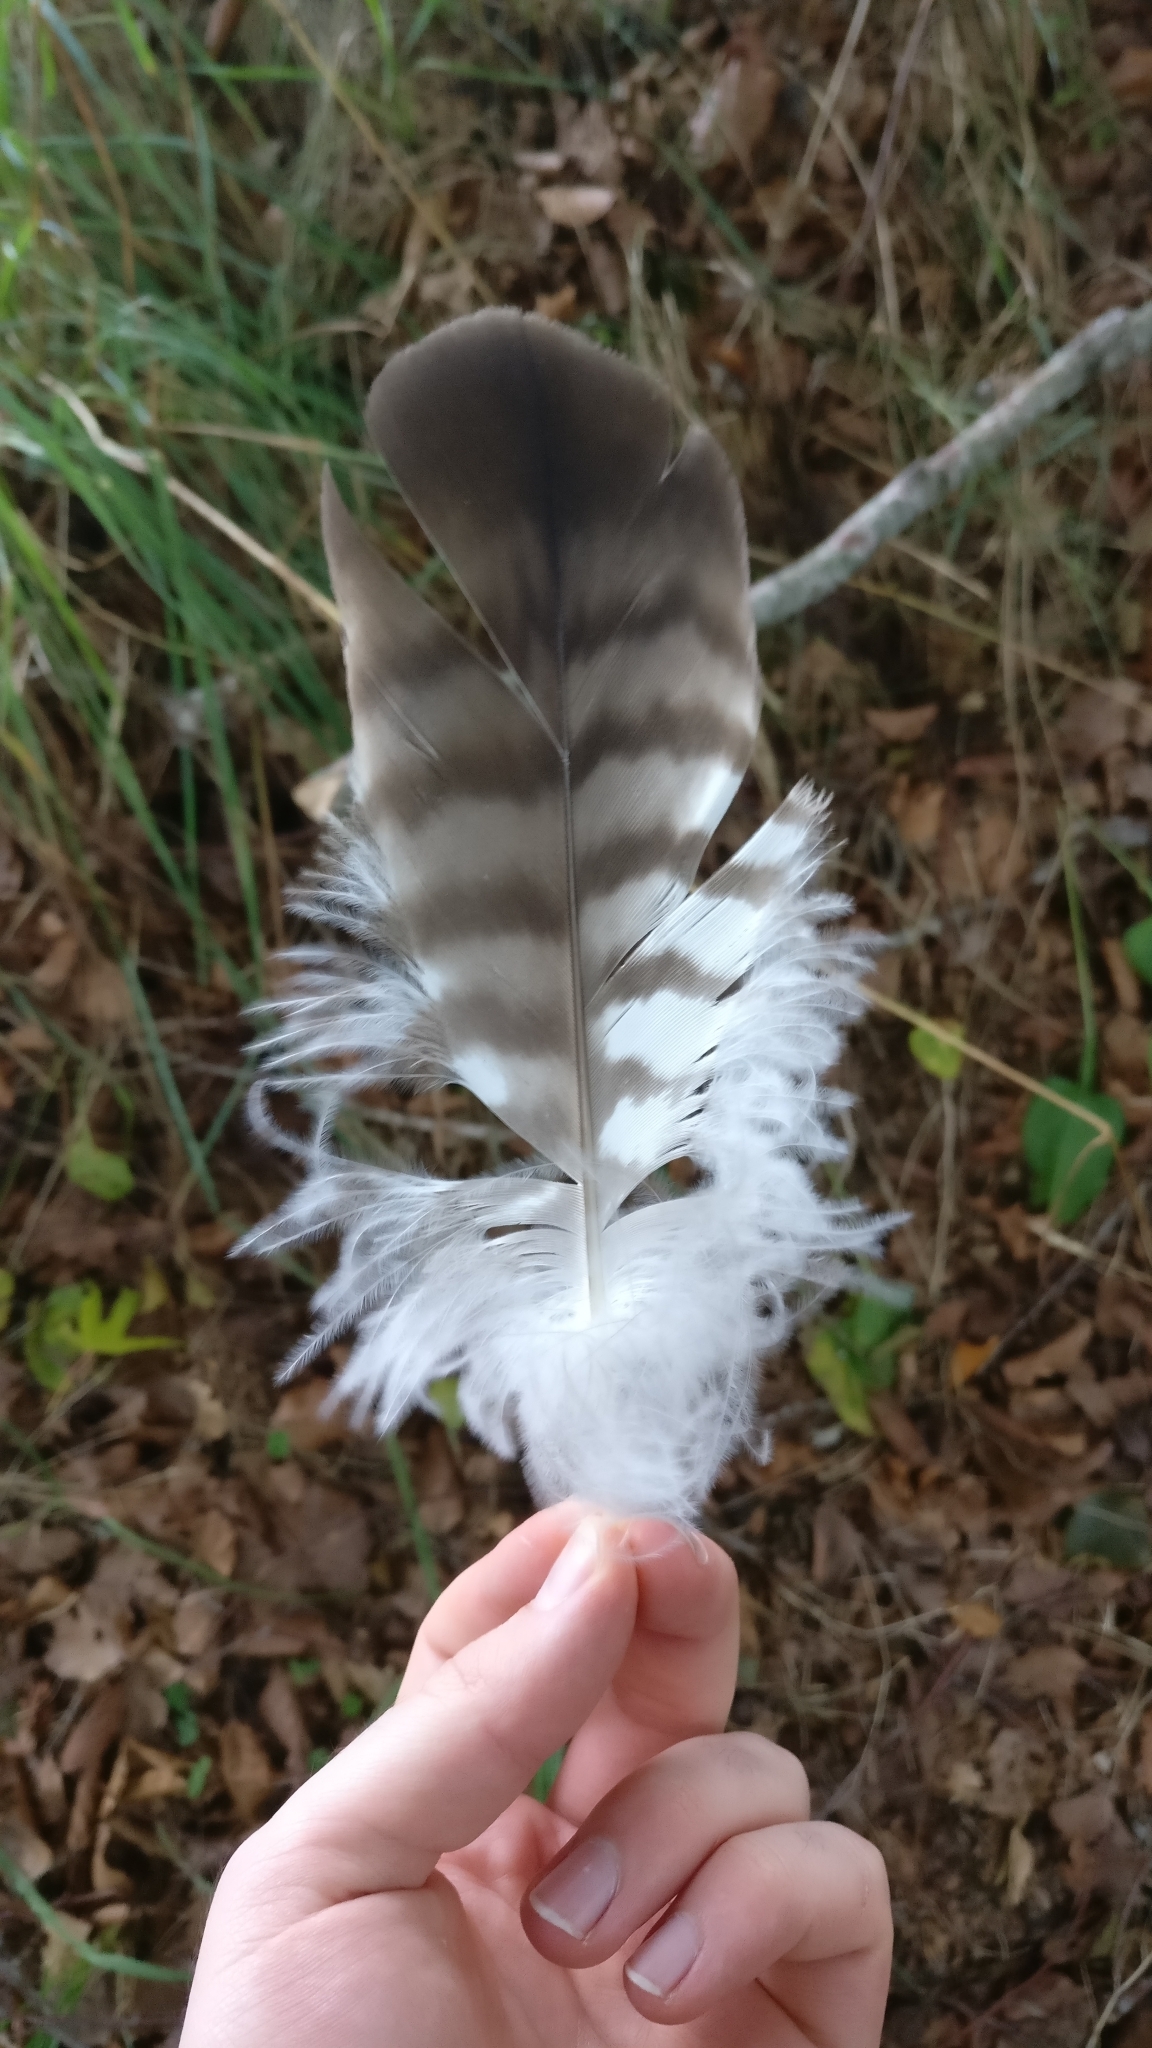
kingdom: Animalia
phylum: Chordata
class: Aves
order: Accipitriformes
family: Accipitridae
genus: Buteo
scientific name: Buteo buteo
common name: Common buzzard
